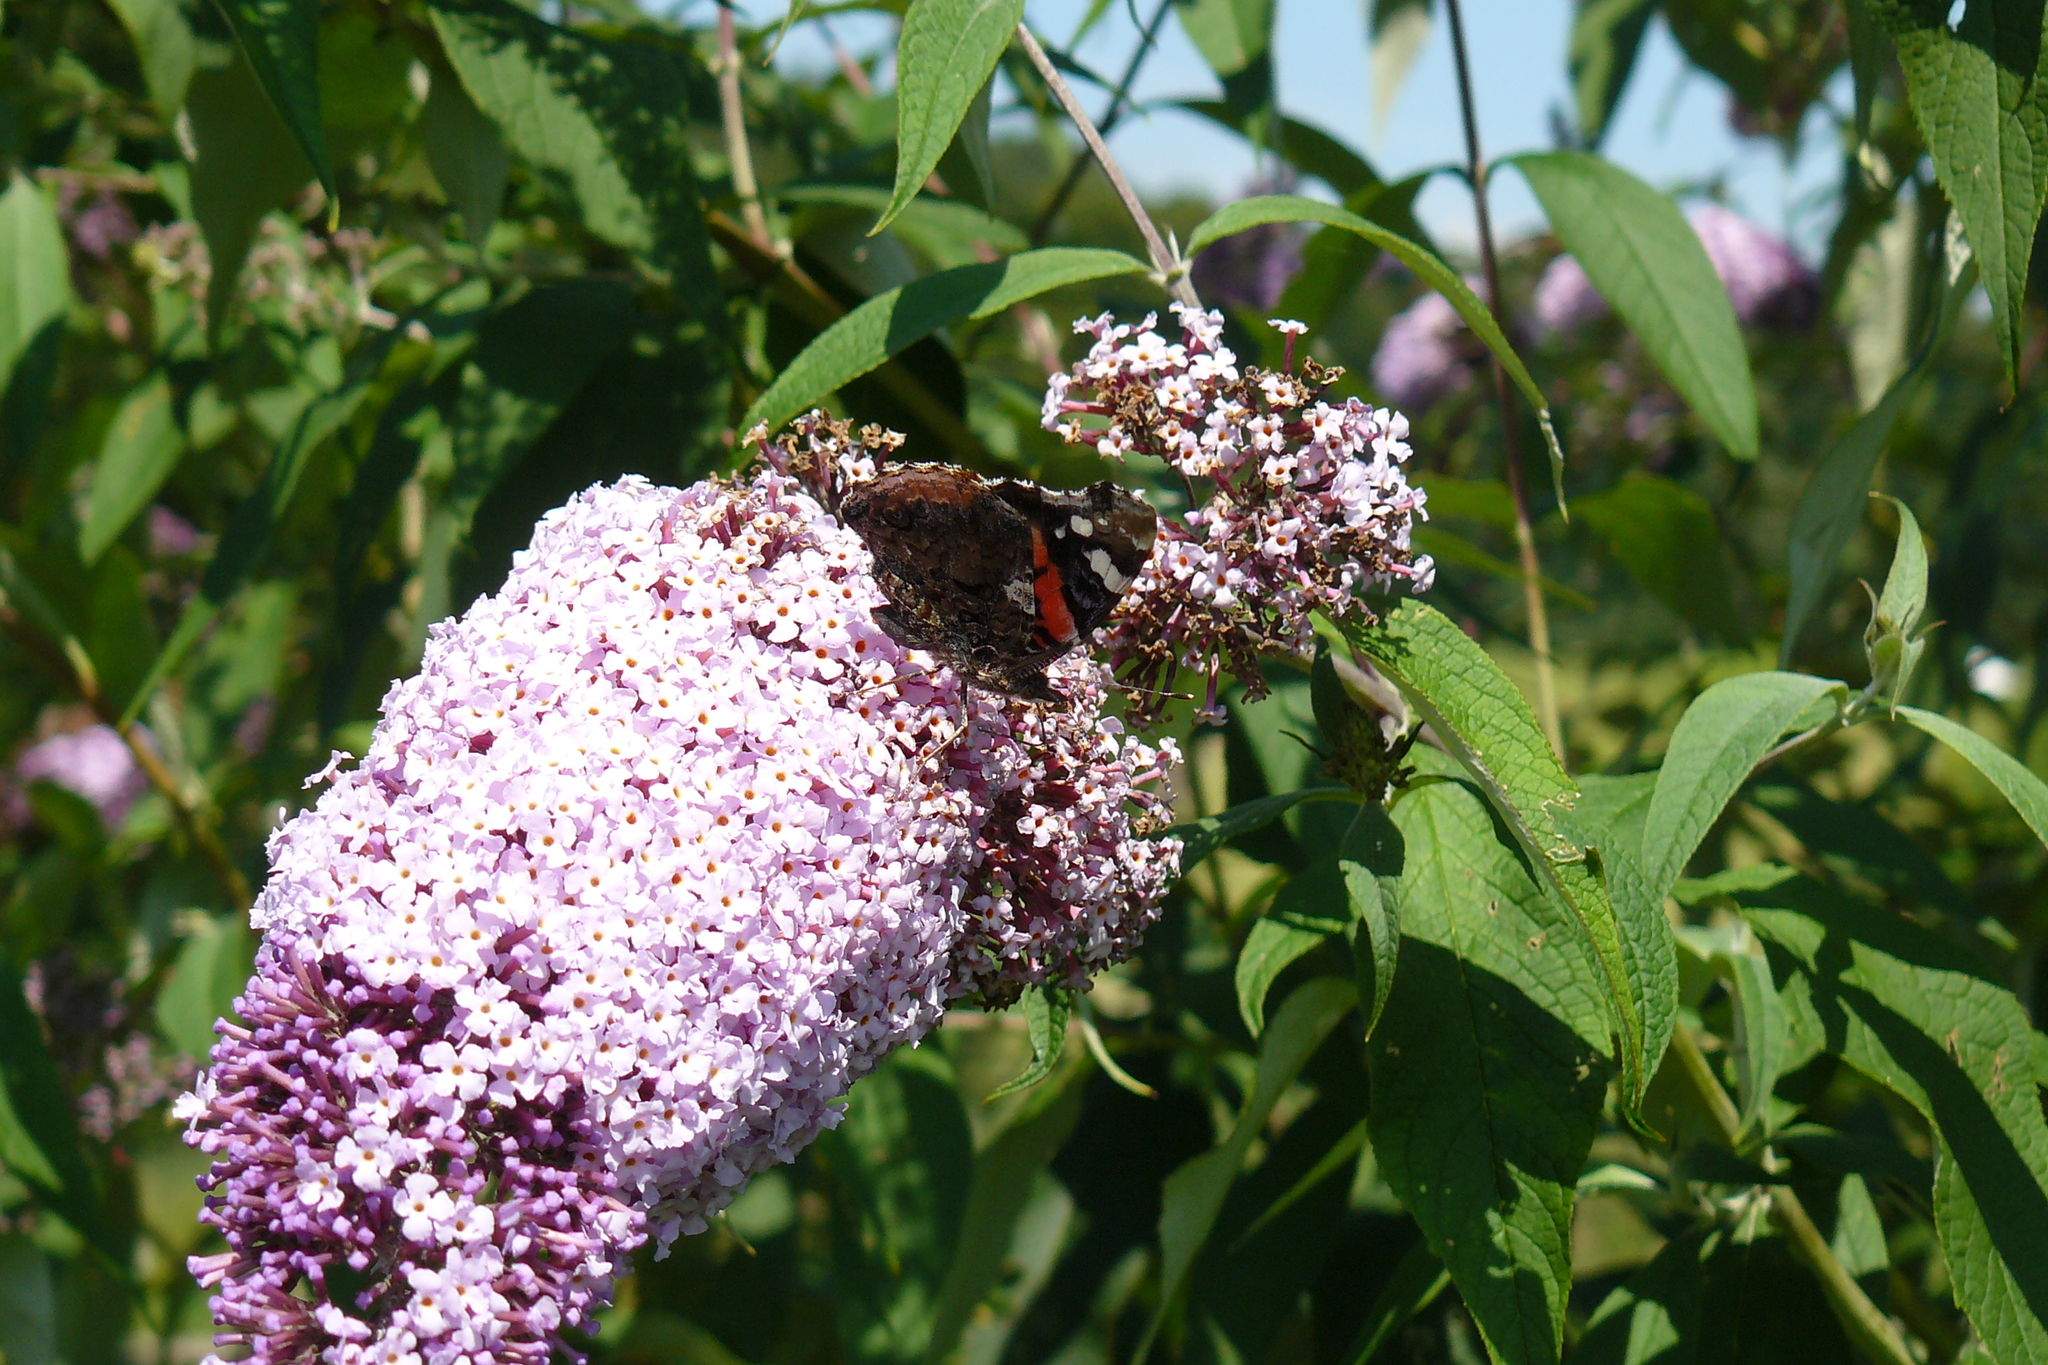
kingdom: Animalia
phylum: Arthropoda
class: Insecta
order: Lepidoptera
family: Nymphalidae
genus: Vanessa
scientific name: Vanessa atalanta
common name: Red admiral
